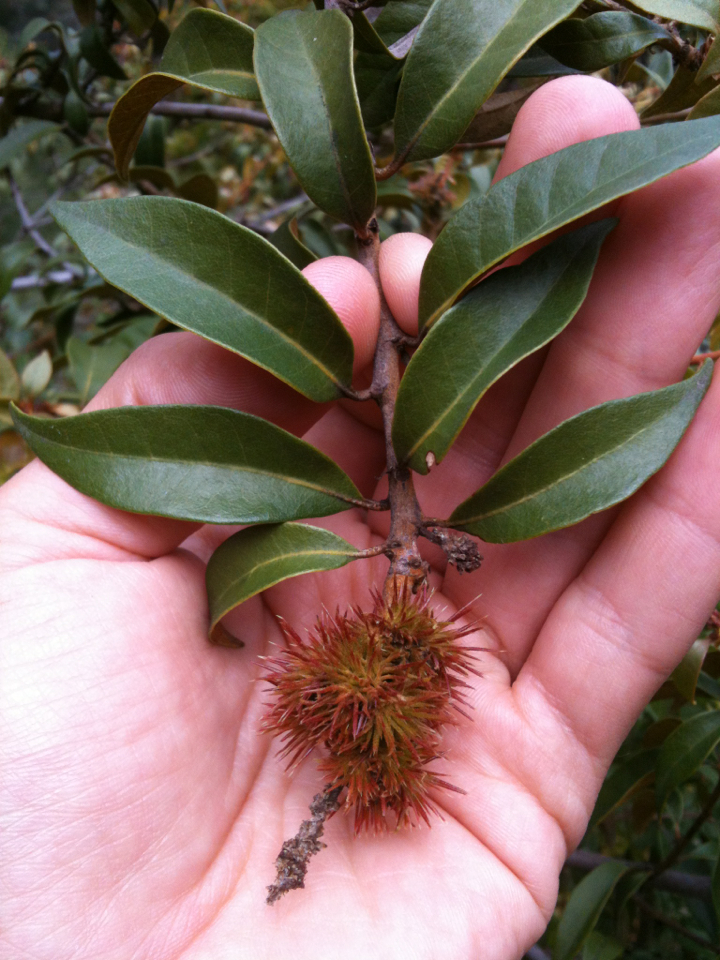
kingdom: Plantae
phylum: Tracheophyta
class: Magnoliopsida
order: Fagales
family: Fagaceae
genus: Chrysolepis
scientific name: Chrysolepis chrysophylla
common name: Giant chinquapin
